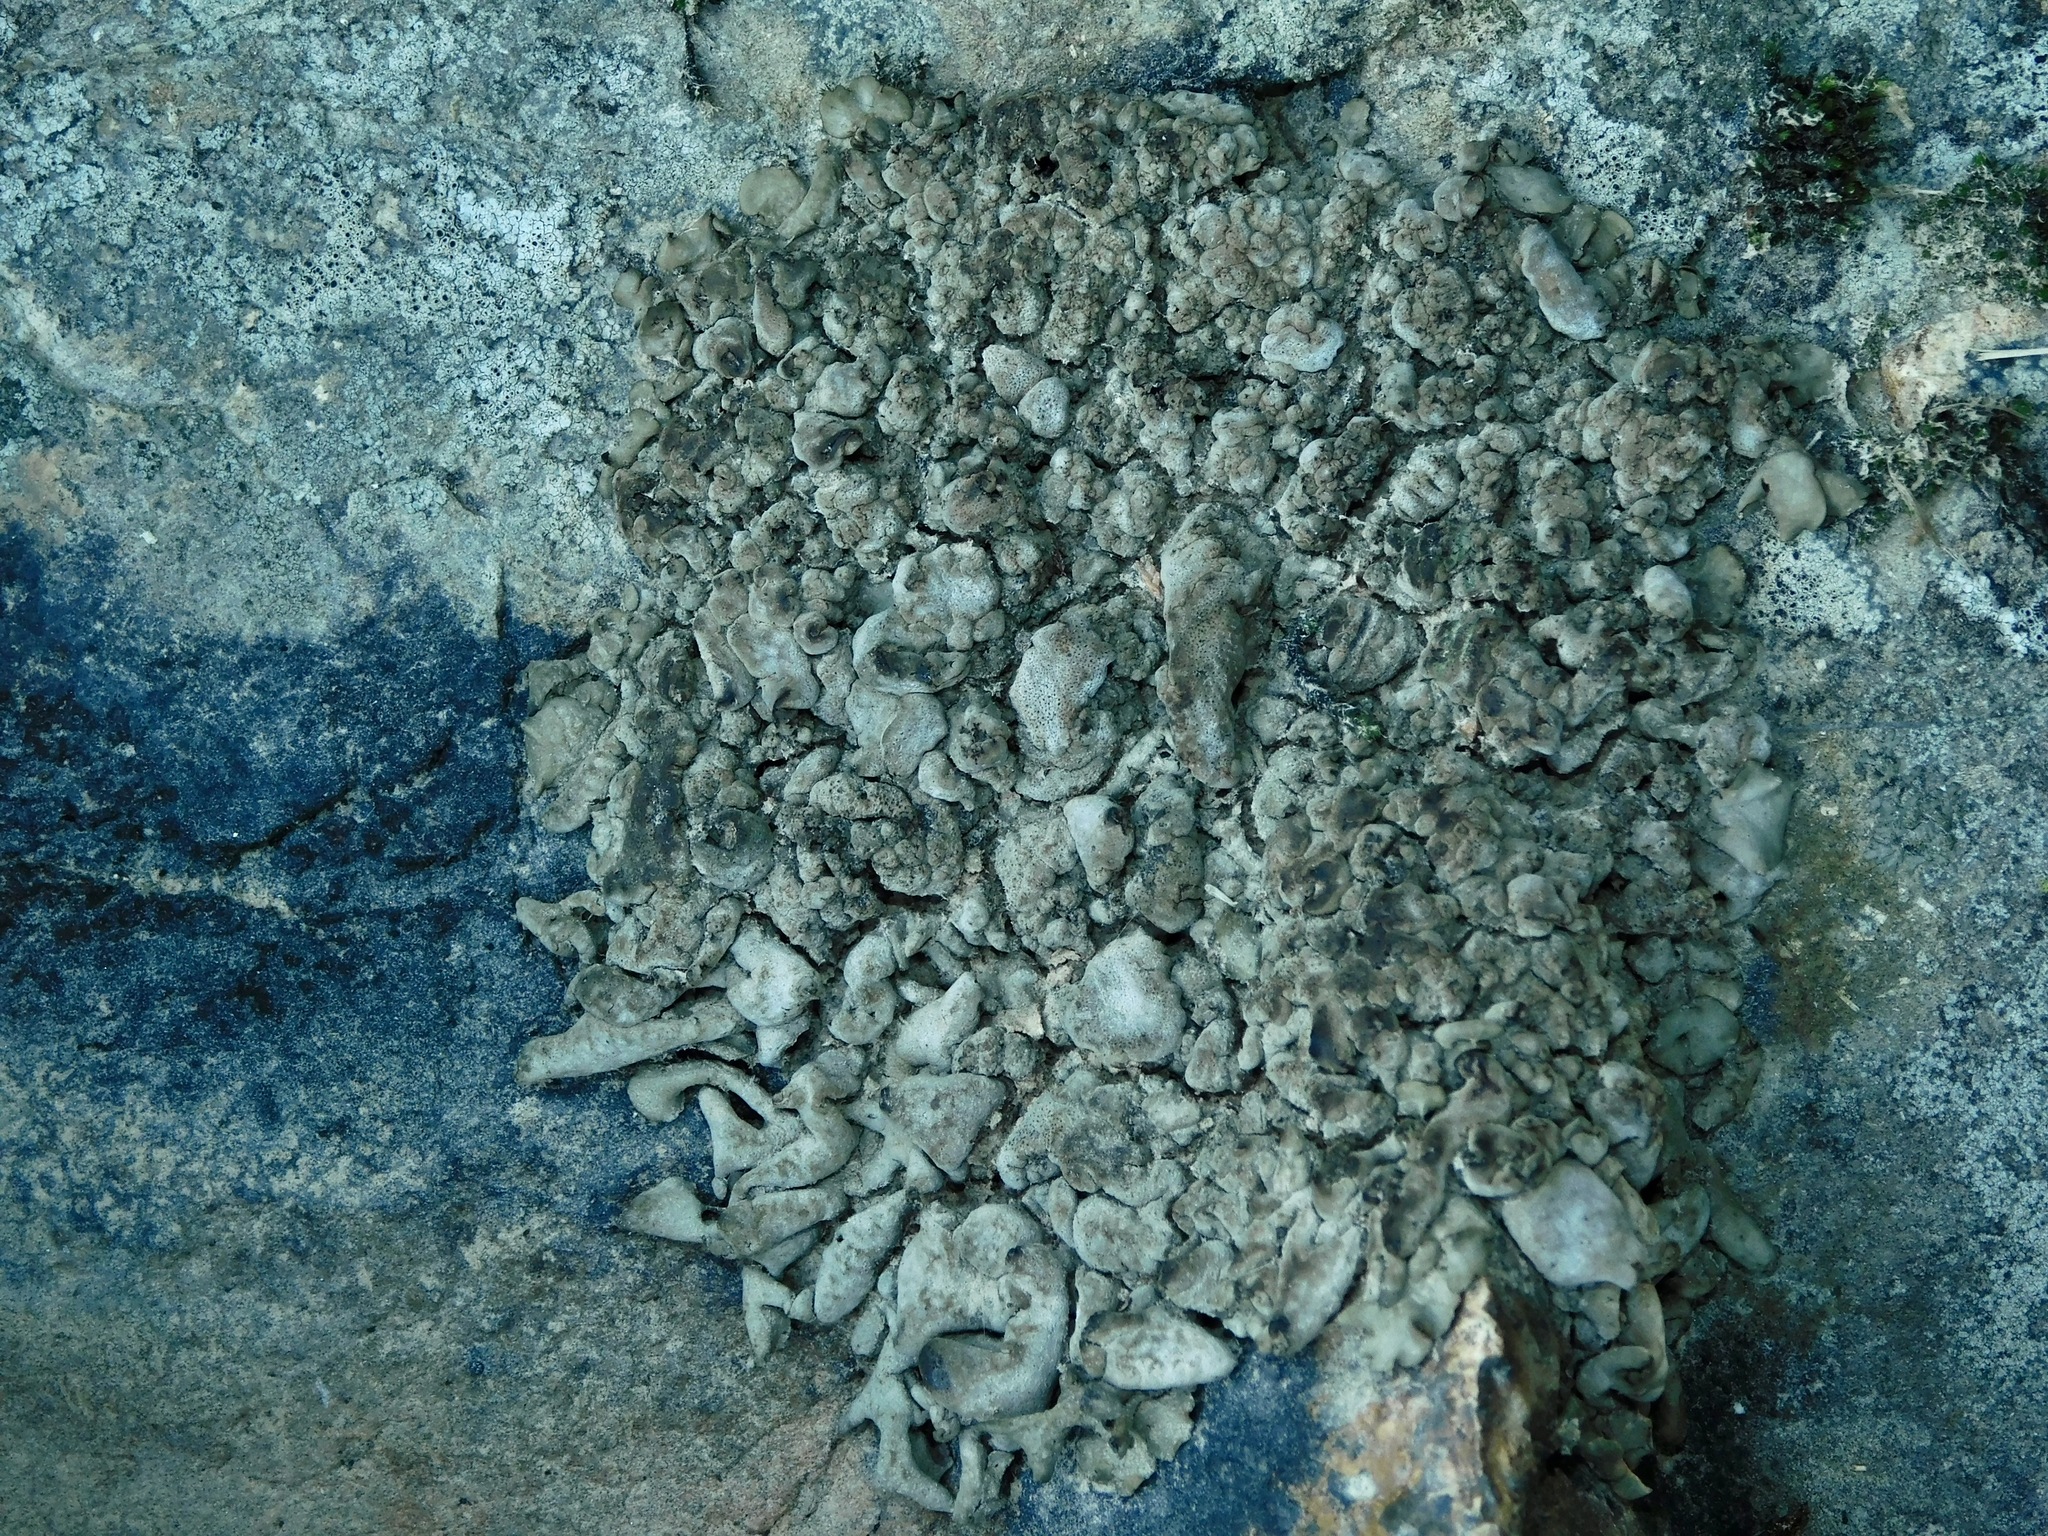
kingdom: Fungi
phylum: Ascomycota
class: Eurotiomycetes
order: Verrucariales
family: Verrucariaceae
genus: Dermatocarpon
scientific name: Dermatocarpon luridum
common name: Brook stippleback lichen
